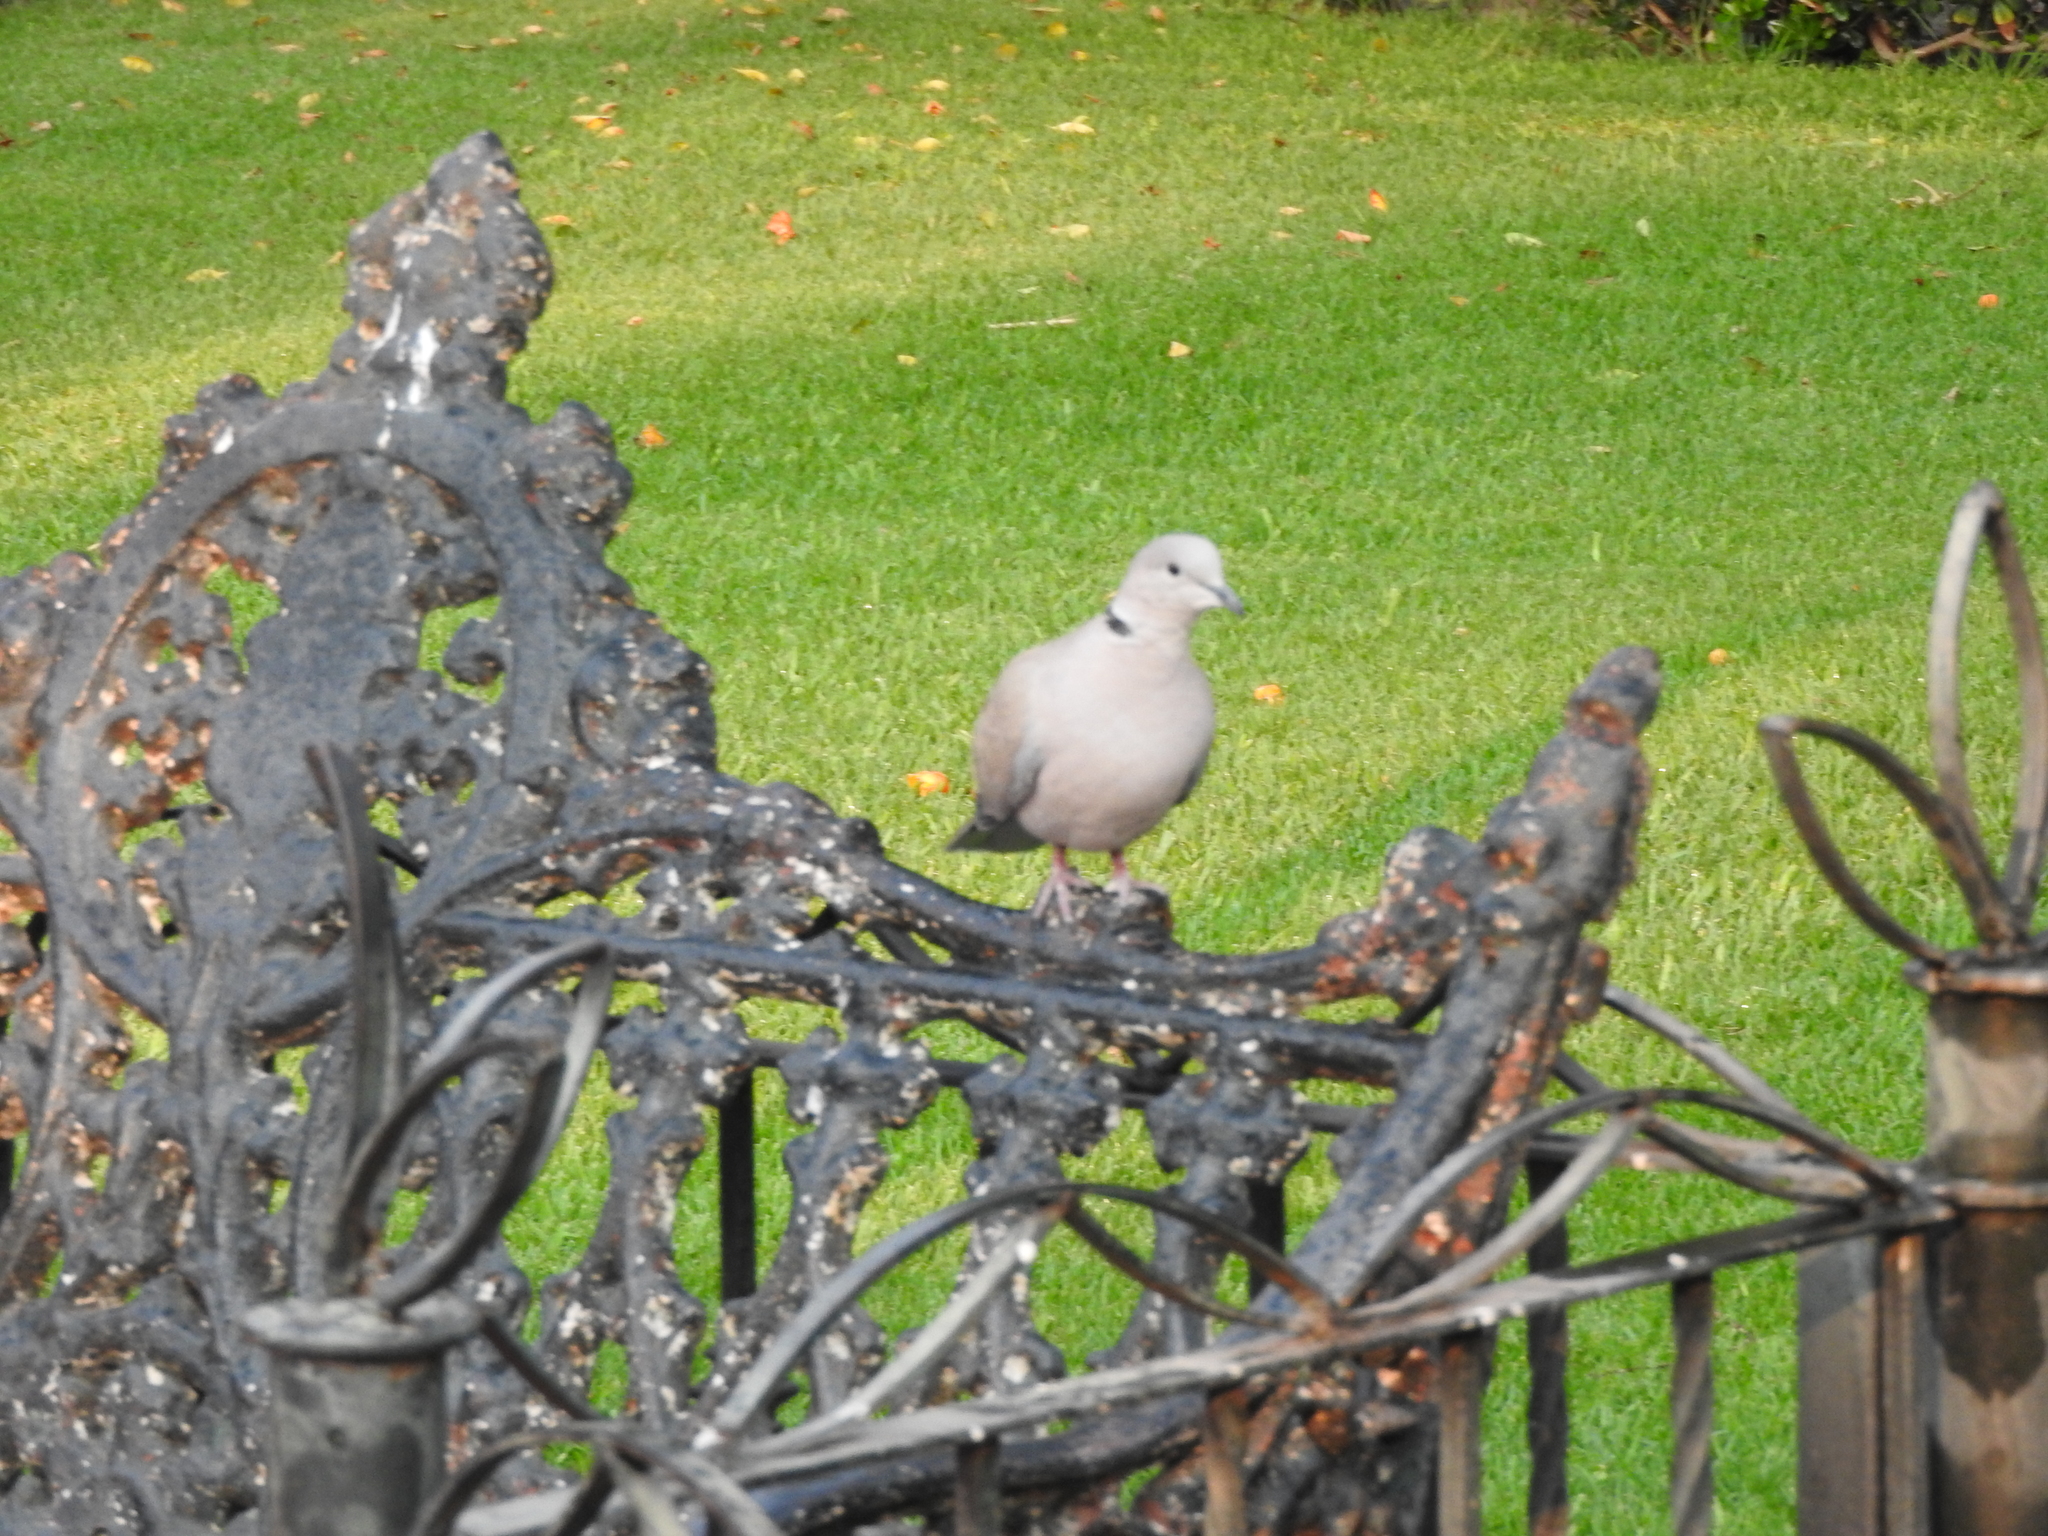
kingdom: Animalia
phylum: Chordata
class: Aves
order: Columbiformes
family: Columbidae
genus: Streptopelia
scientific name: Streptopelia decaocto
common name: Eurasian collared dove
